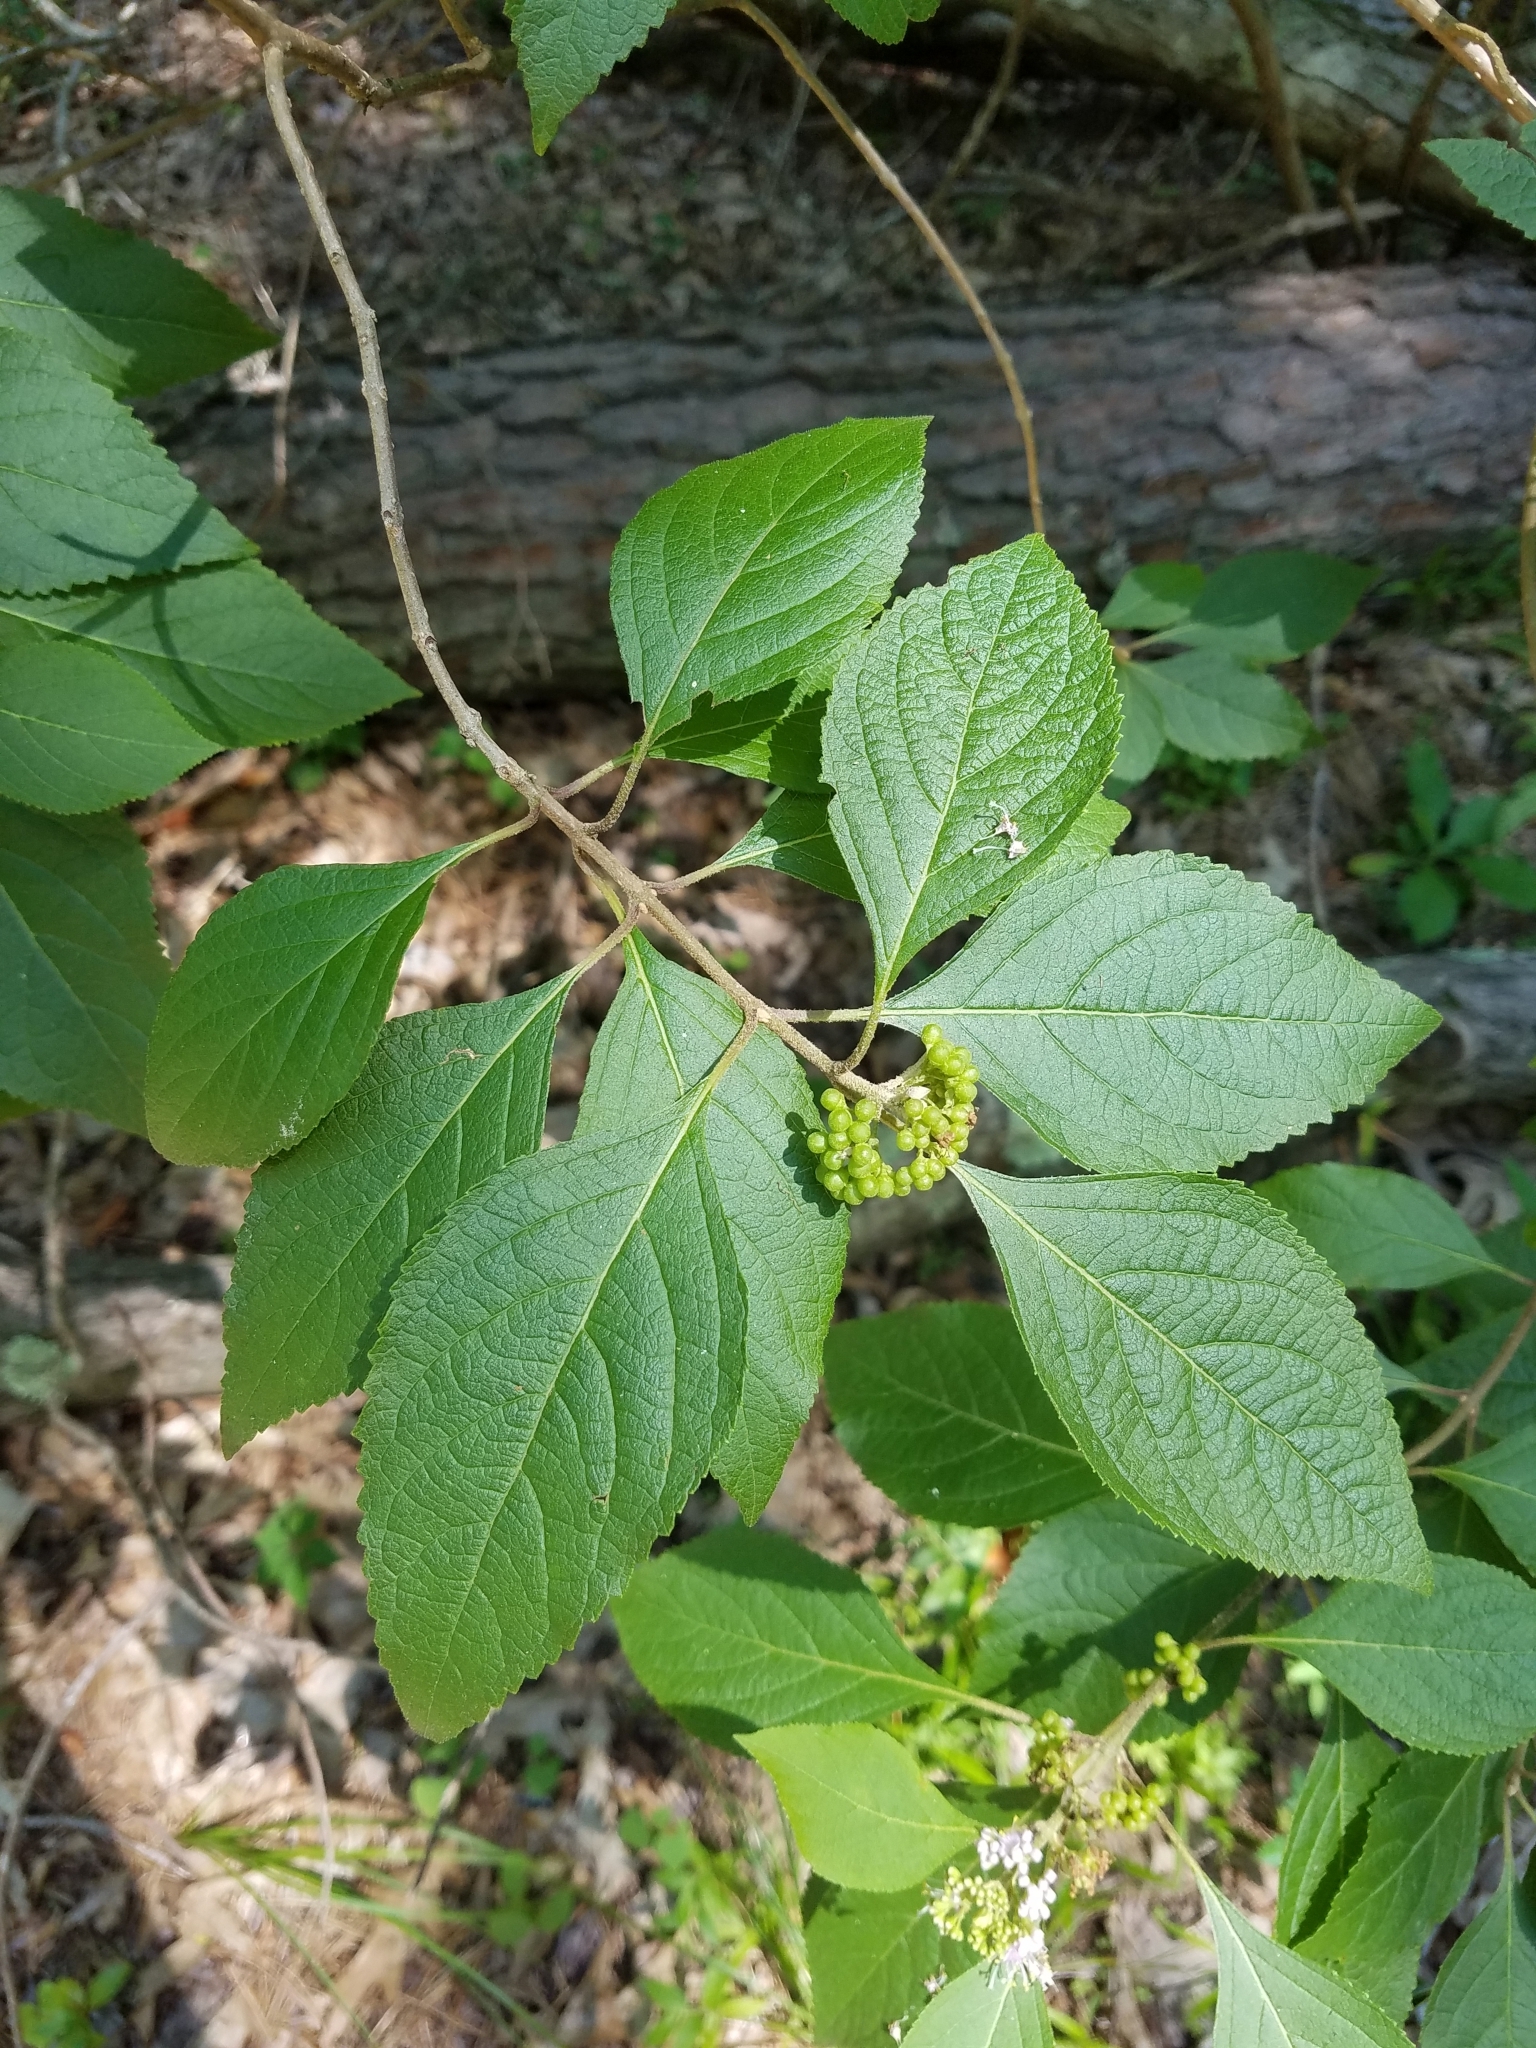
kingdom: Plantae
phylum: Tracheophyta
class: Magnoliopsida
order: Lamiales
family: Lamiaceae
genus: Callicarpa
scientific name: Callicarpa americana
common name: American beautyberry
